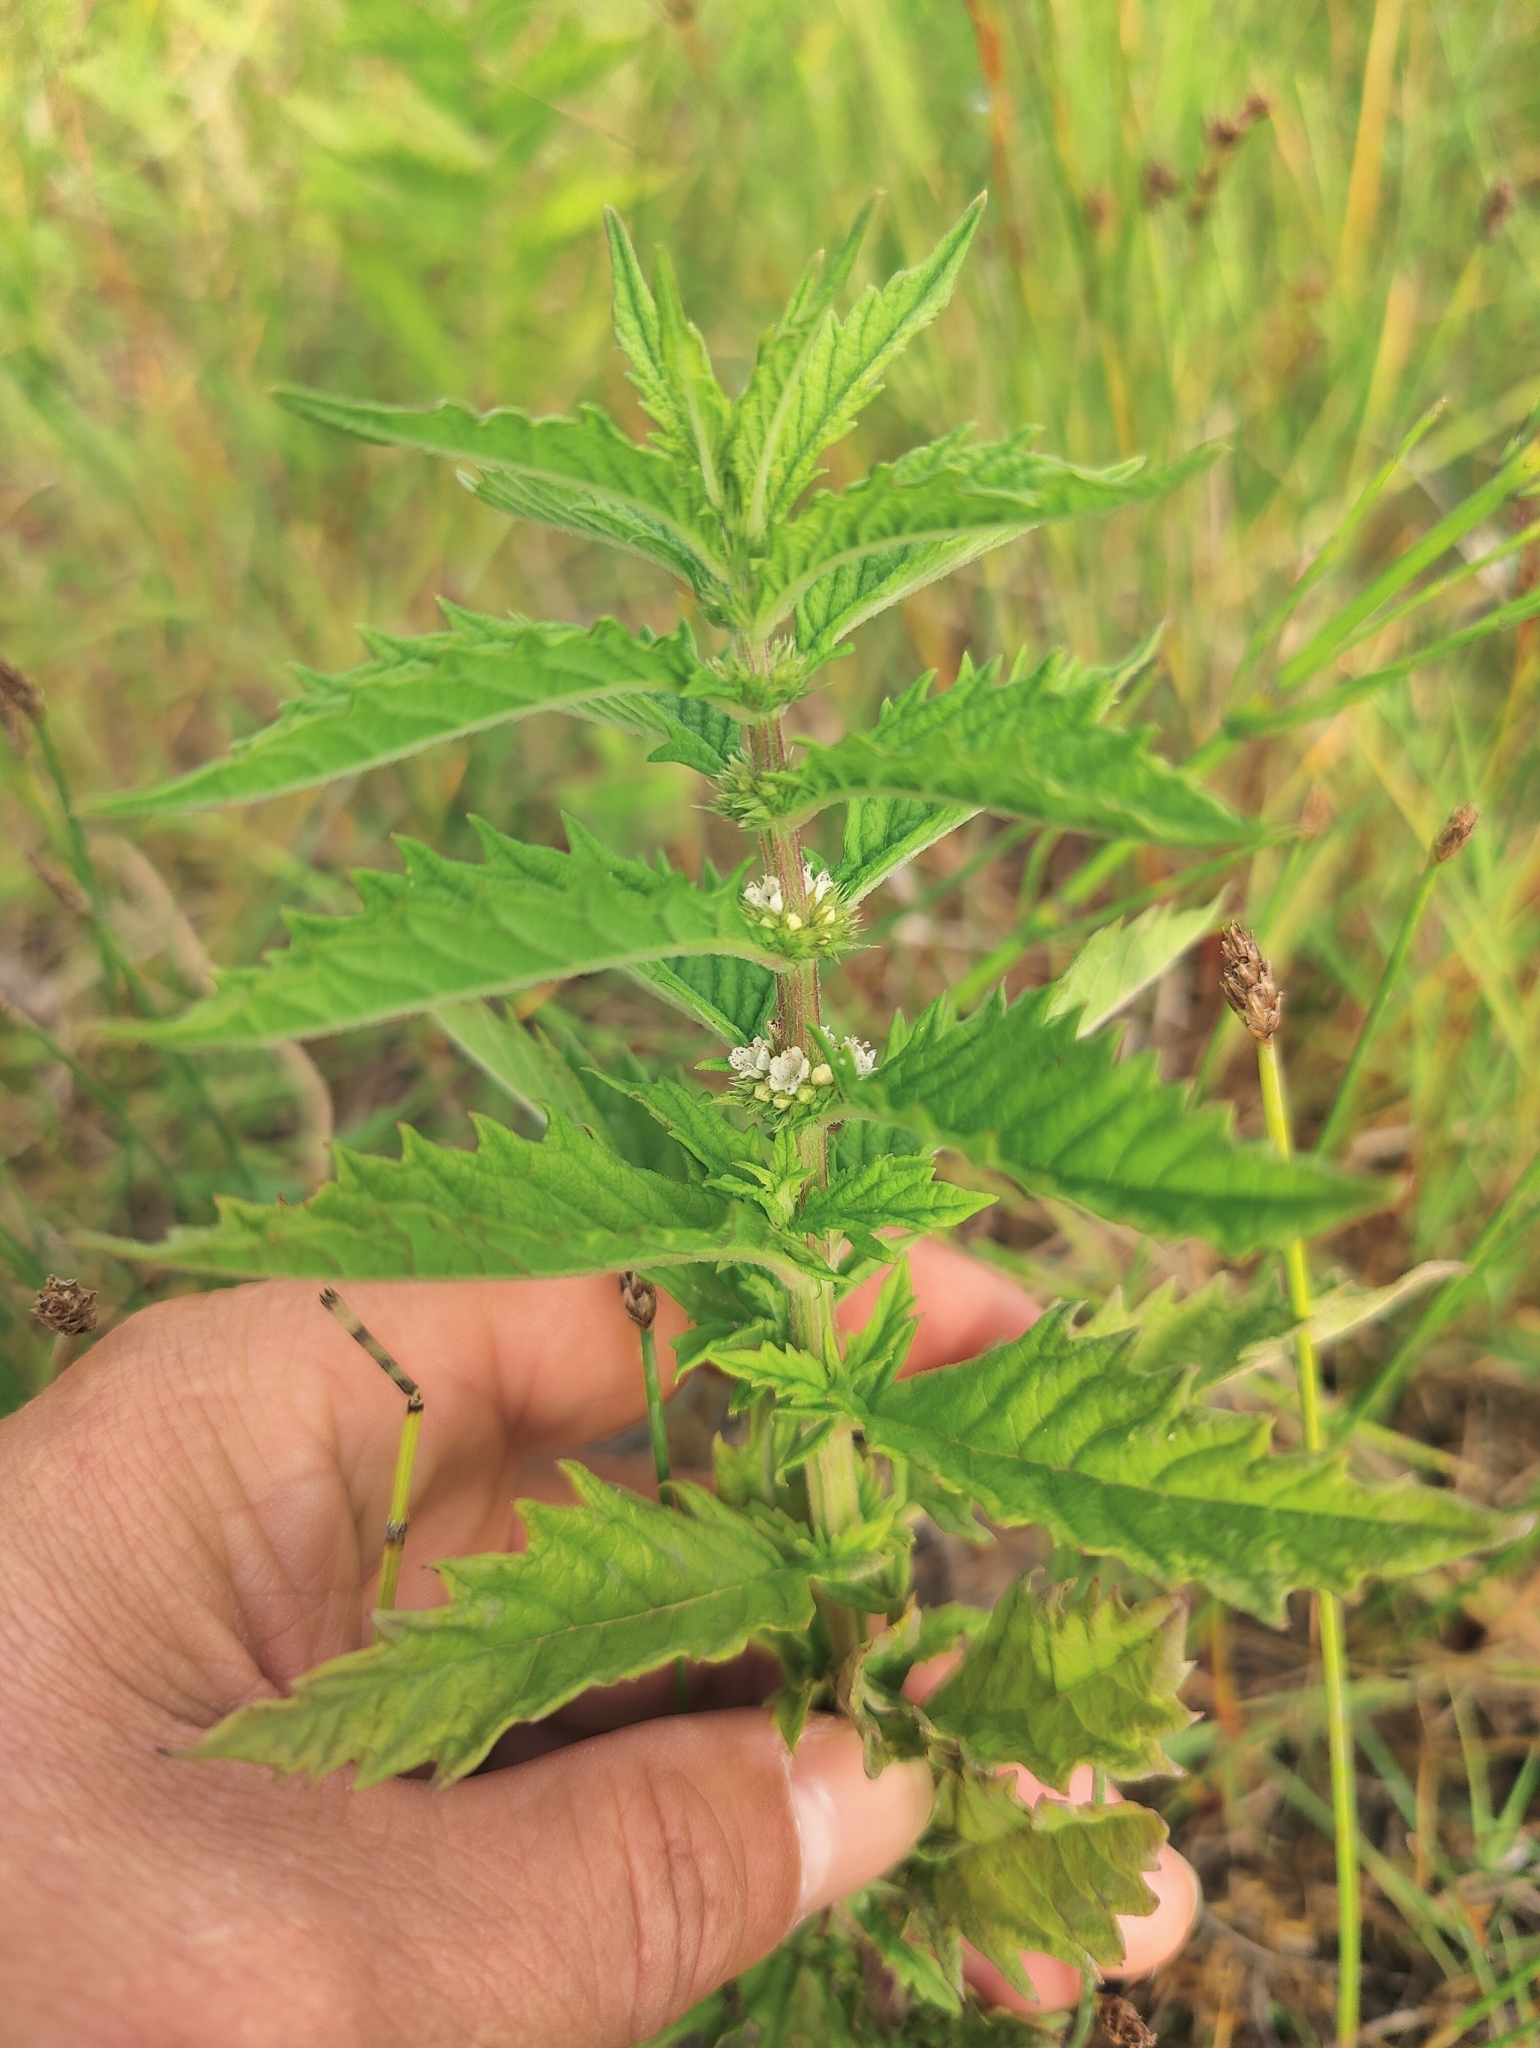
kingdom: Plantae
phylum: Tracheophyta
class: Magnoliopsida
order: Lamiales
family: Lamiaceae
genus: Lycopus
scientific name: Lycopus europaeus
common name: European bugleweed
